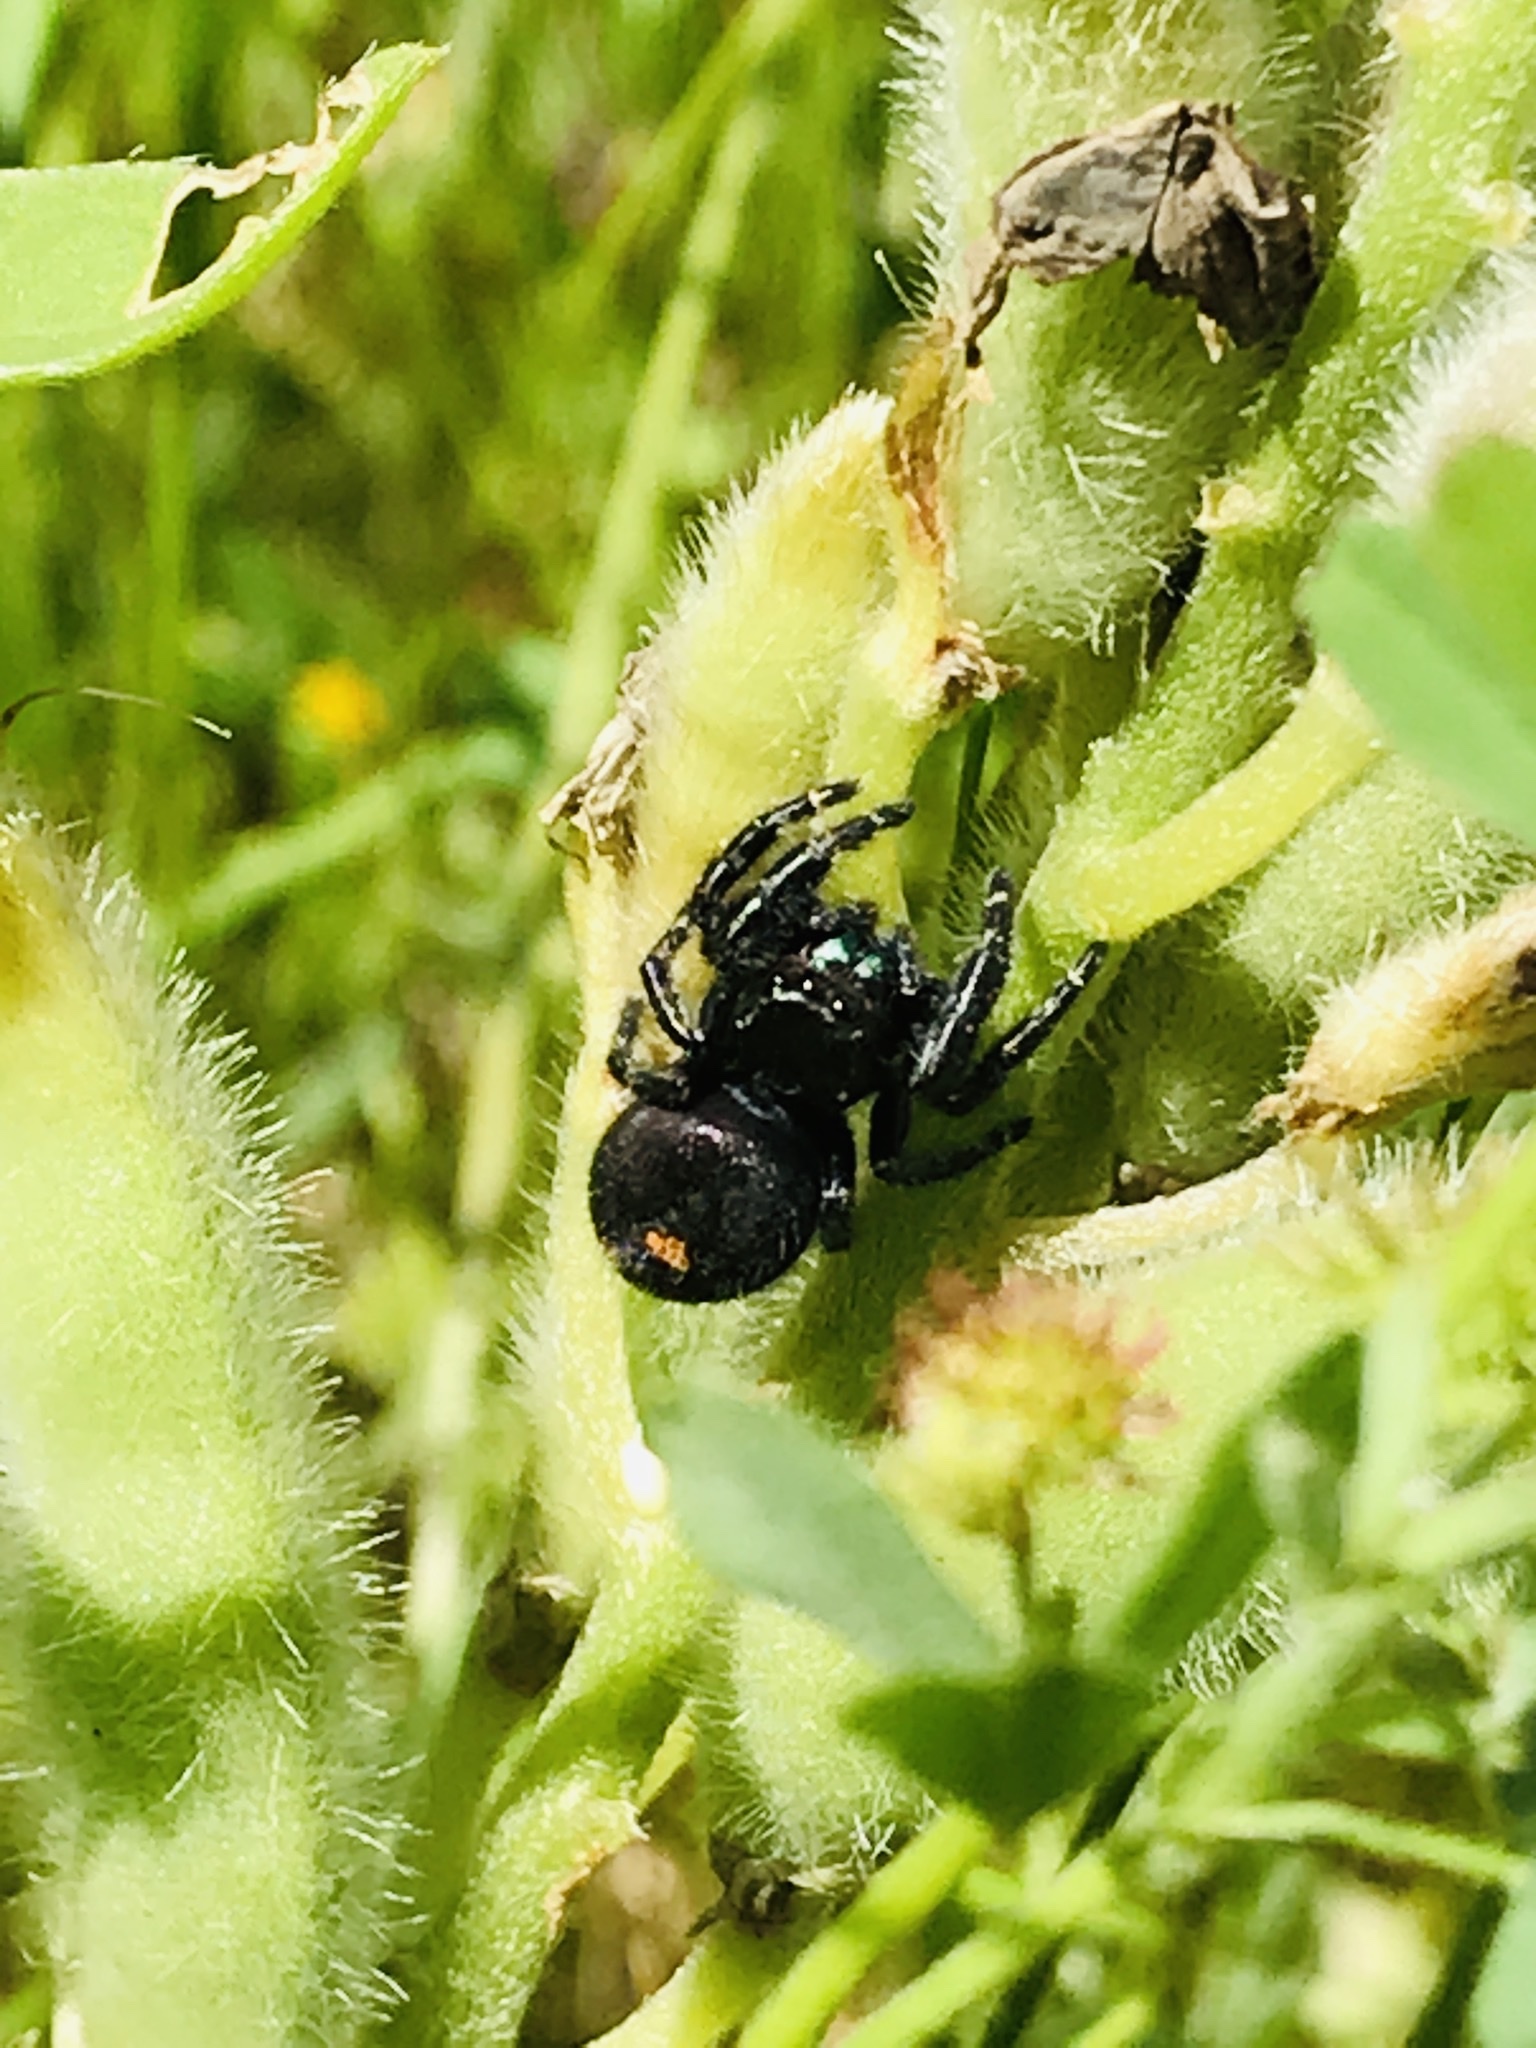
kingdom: Animalia
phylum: Arthropoda
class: Arachnida
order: Araneae
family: Salticidae
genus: Phidippus
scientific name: Phidippus audax
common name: Bold jumper
